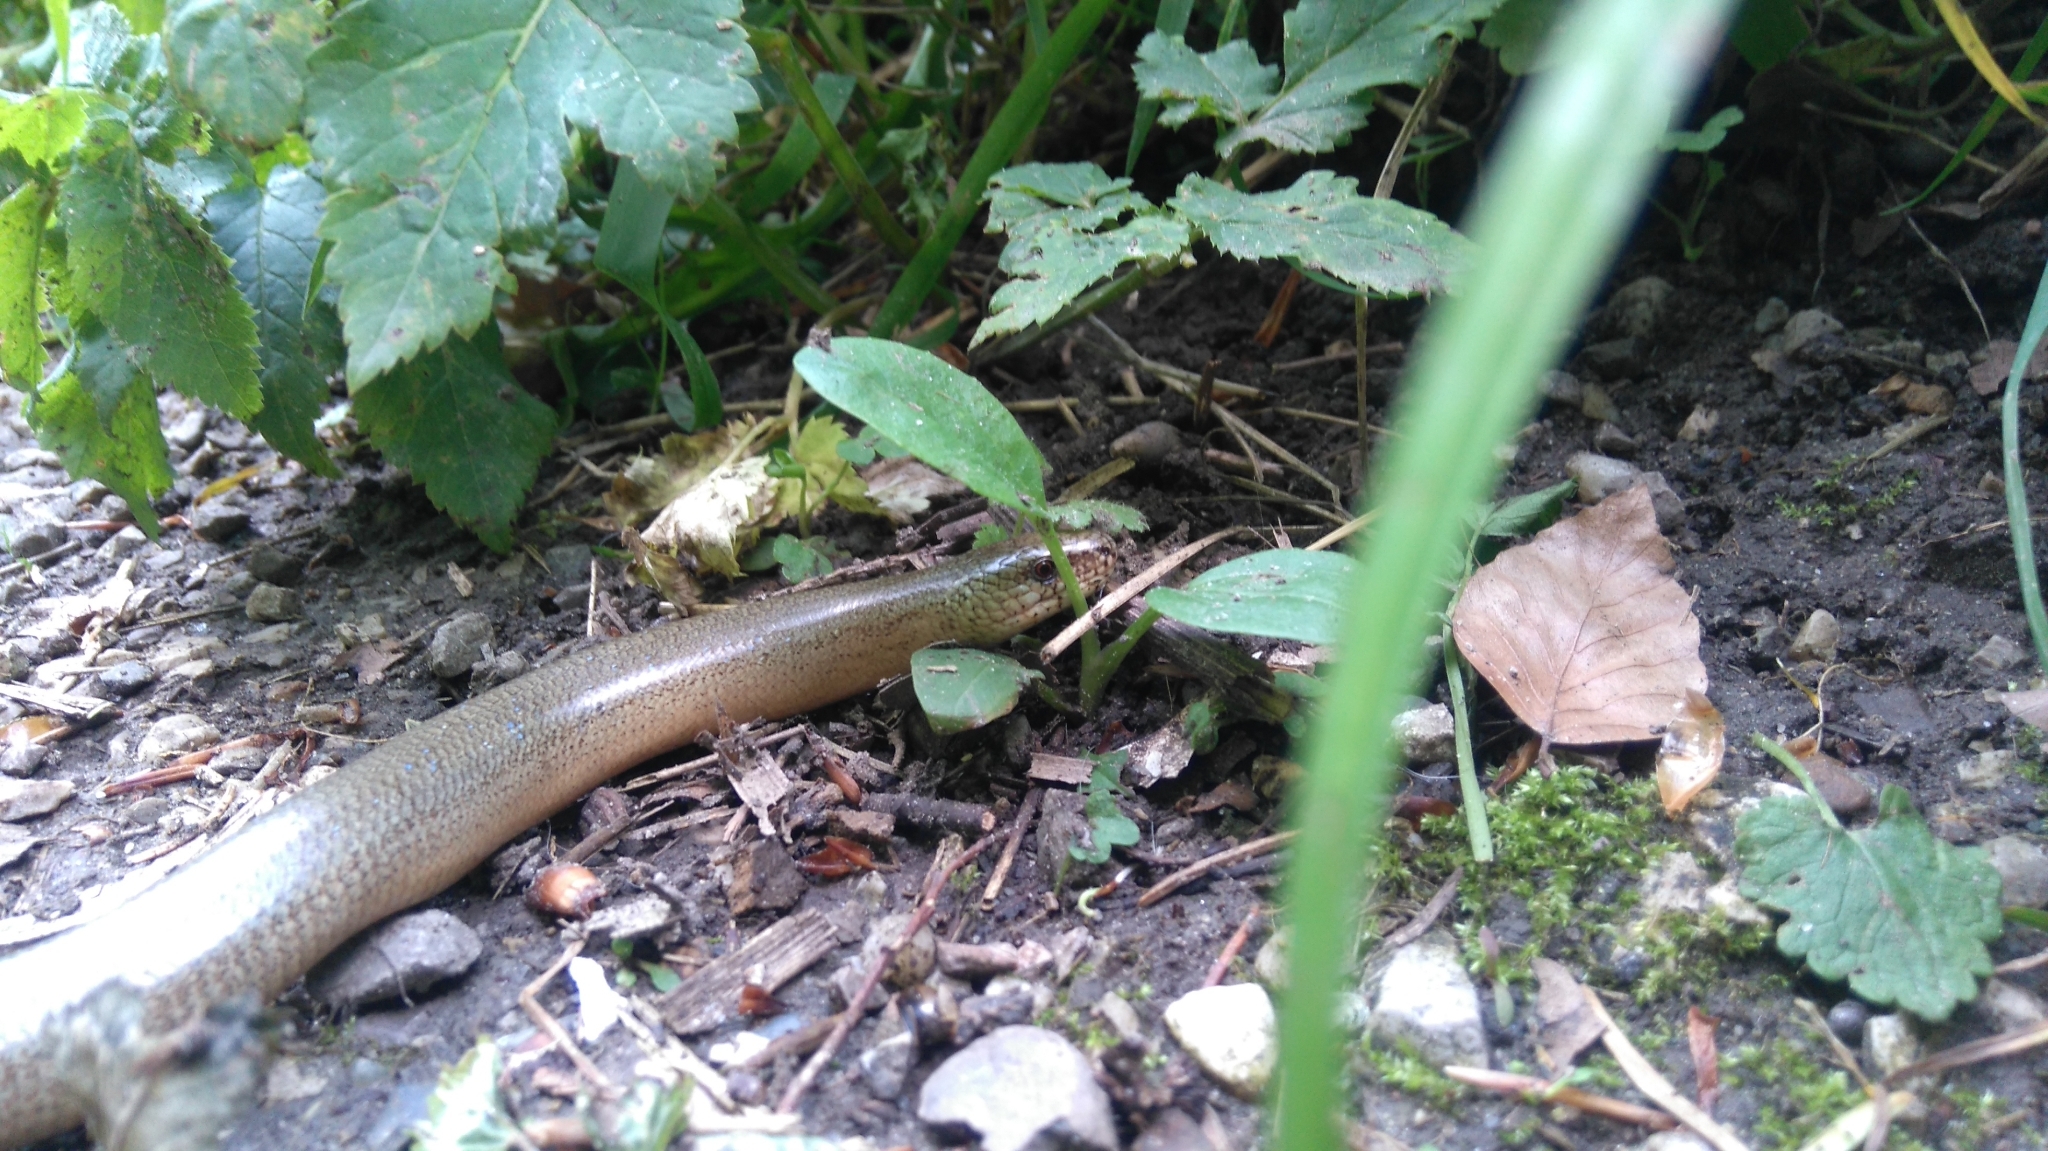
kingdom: Animalia
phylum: Chordata
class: Squamata
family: Anguidae
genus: Anguis
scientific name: Anguis fragilis
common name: Slow worm
